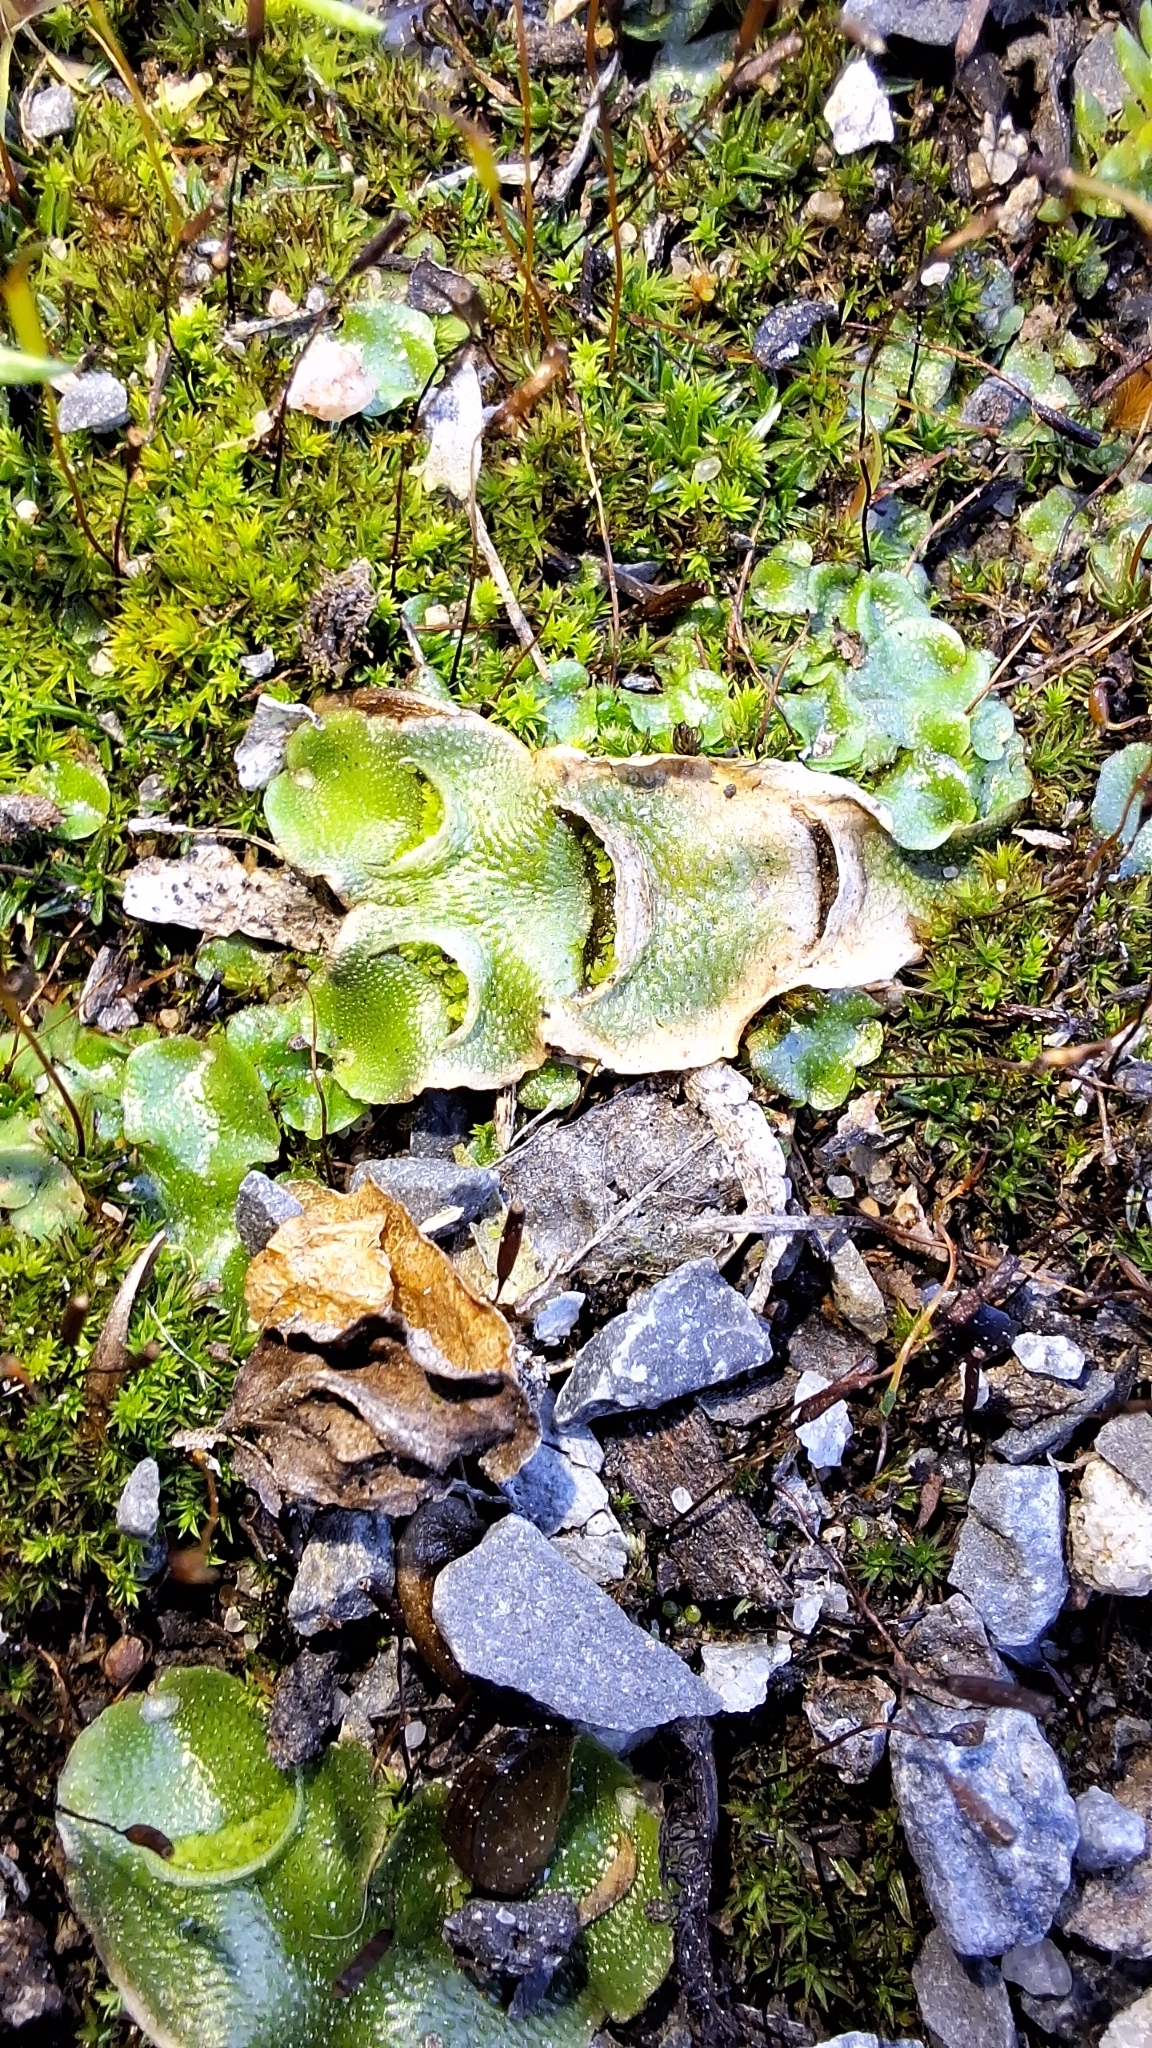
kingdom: Plantae
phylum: Marchantiophyta
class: Marchantiopsida
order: Lunulariales
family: Lunulariaceae
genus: Lunularia
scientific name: Lunularia cruciata
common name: Crescent-cup liverwort
